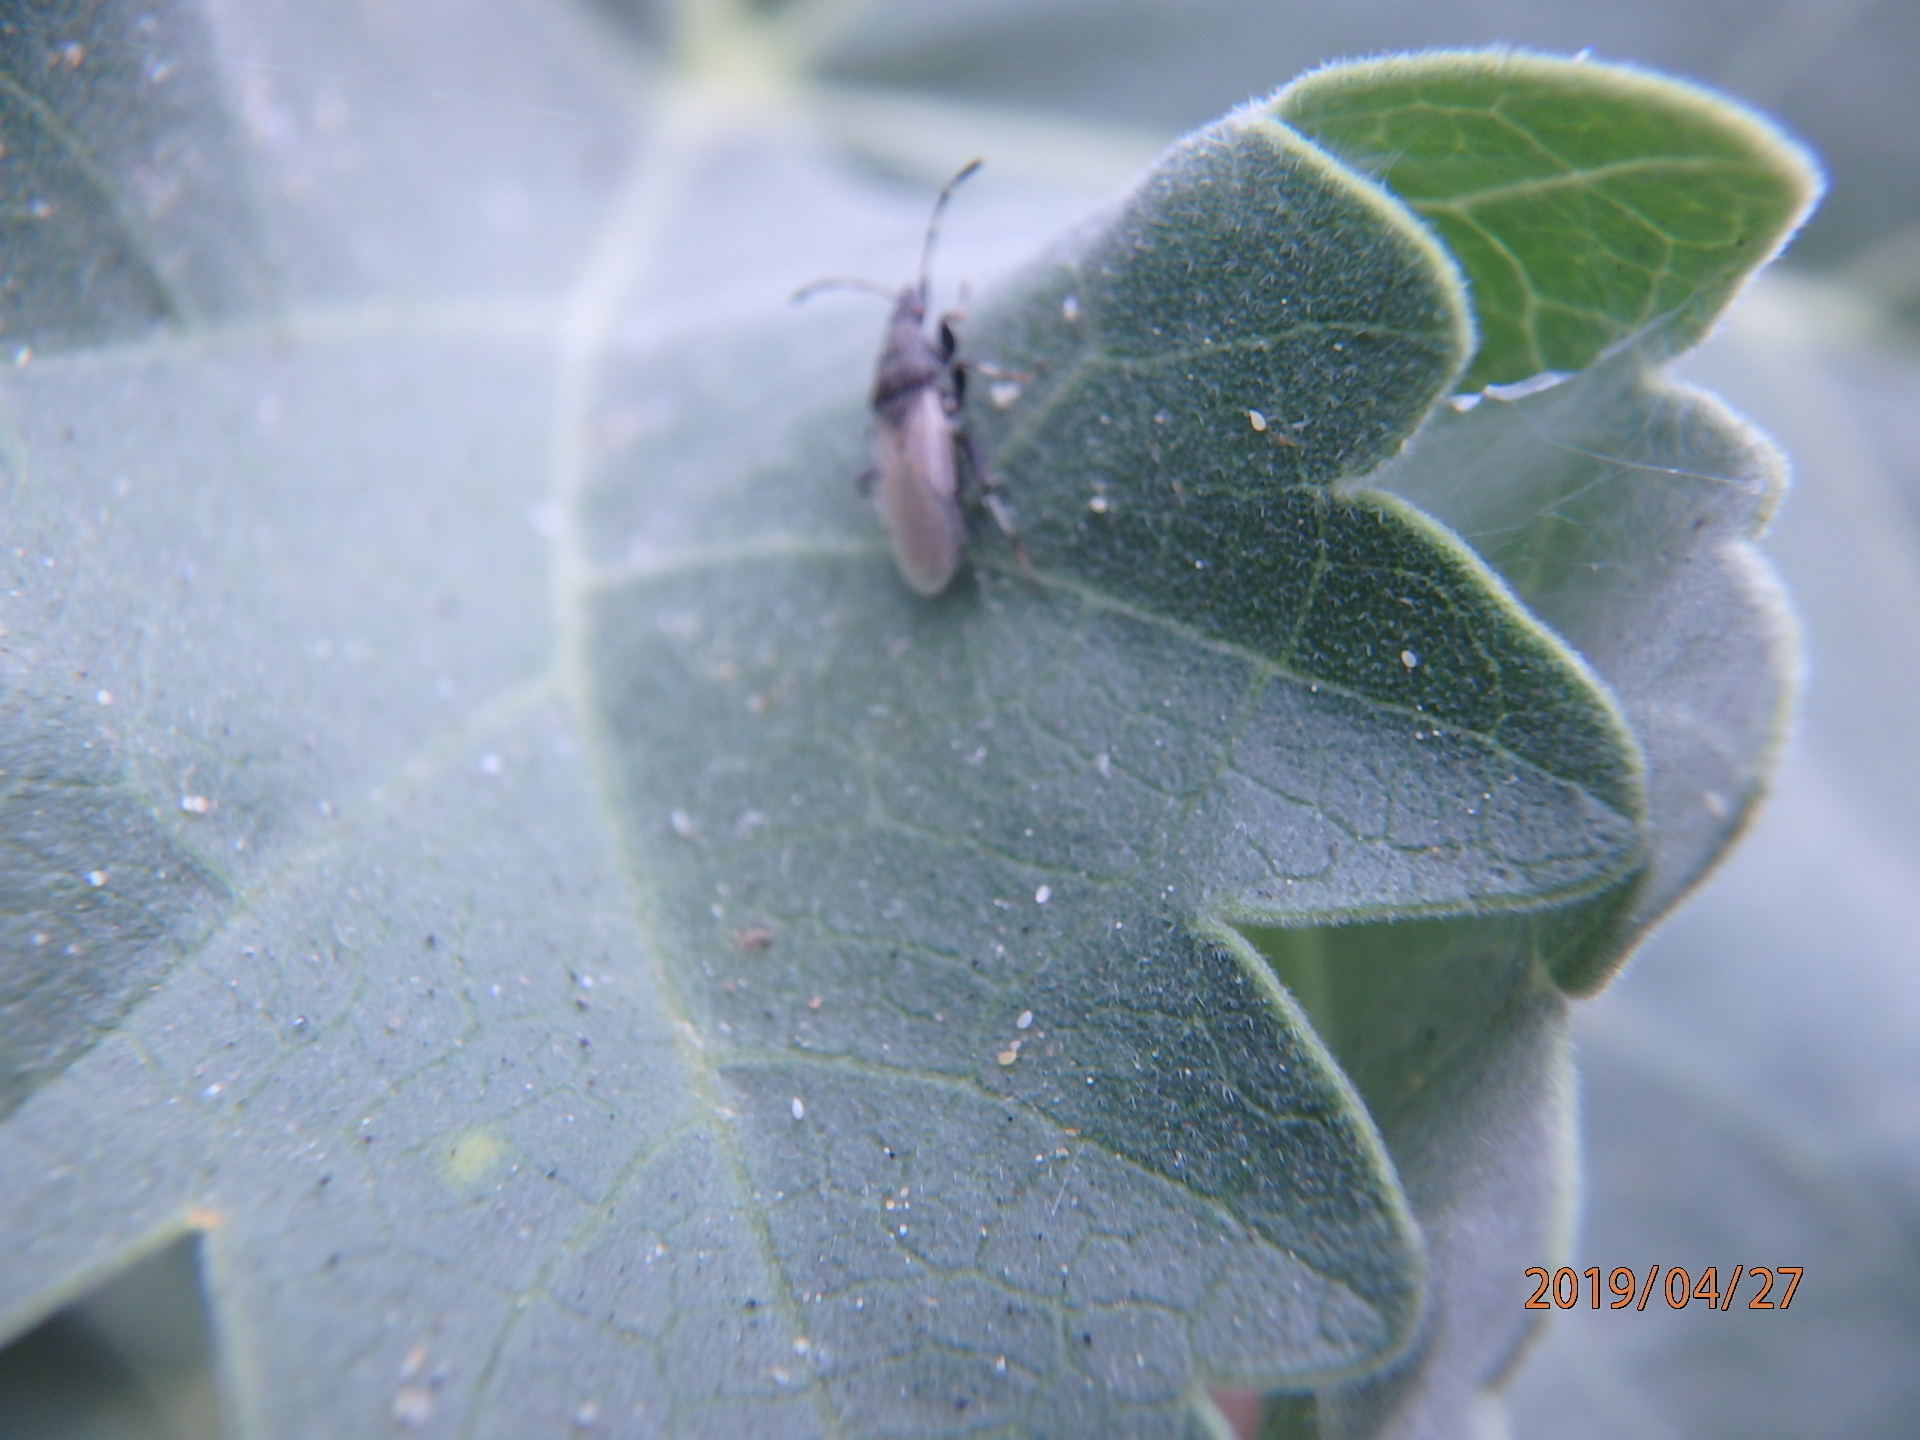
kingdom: Animalia
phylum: Arthropoda
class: Insecta
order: Hemiptera
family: Oxycarenidae
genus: Oxycarenus
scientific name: Oxycarenus hyalinipennis
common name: Cotton seed bug
